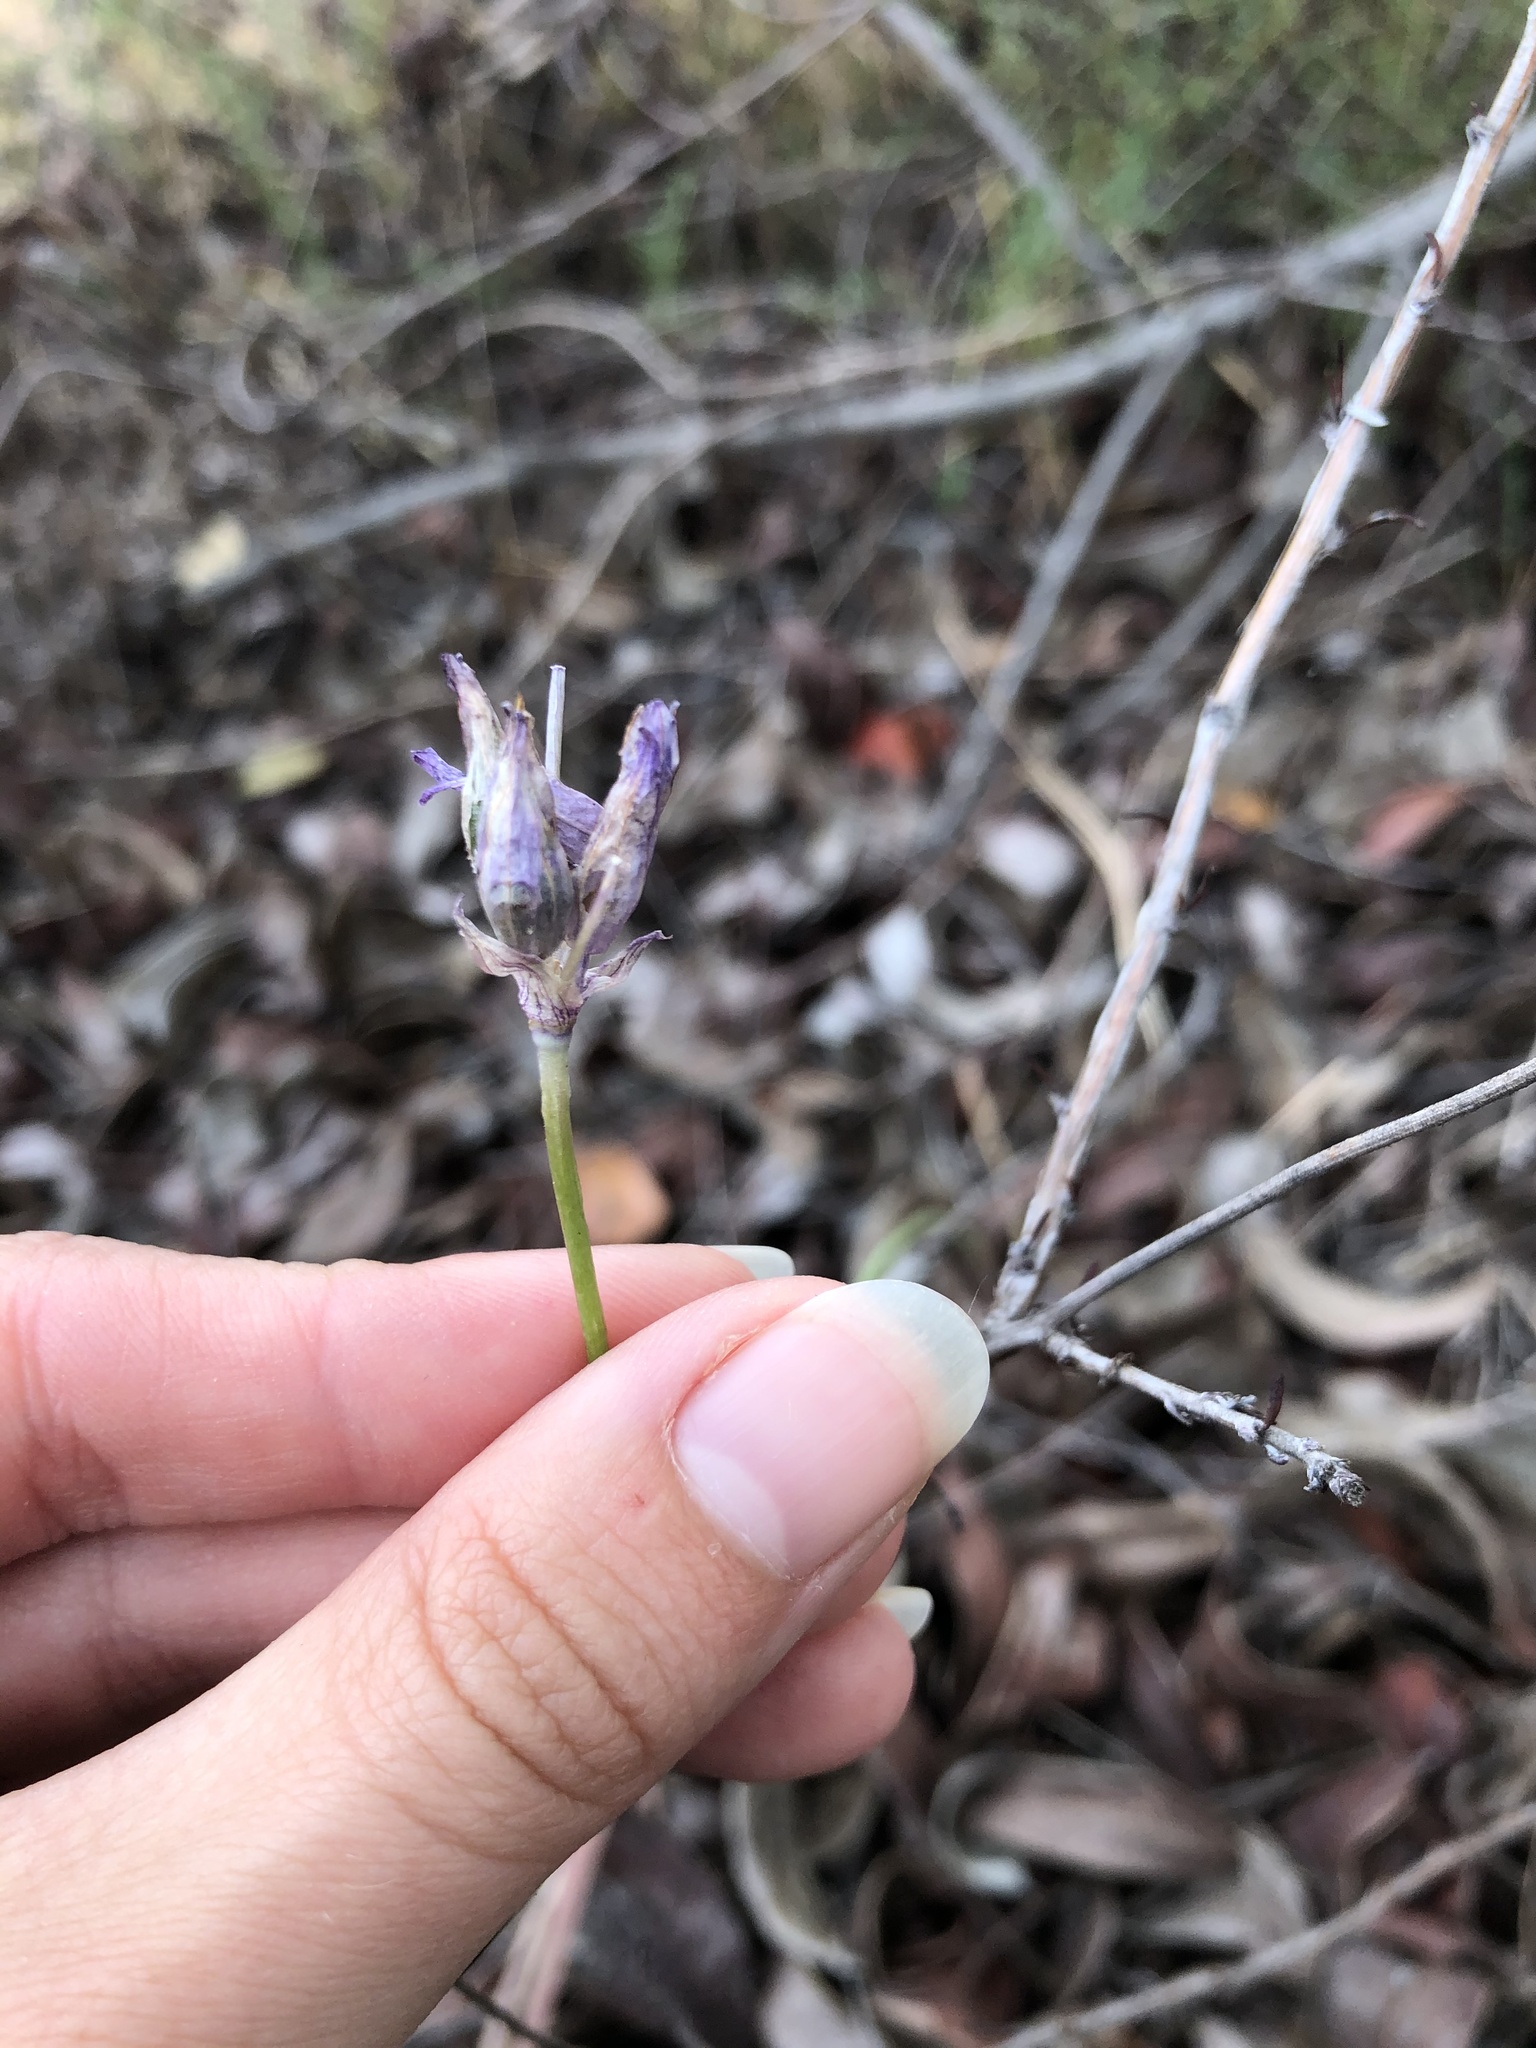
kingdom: Plantae
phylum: Tracheophyta
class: Liliopsida
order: Asparagales
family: Asparagaceae
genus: Dipterostemon
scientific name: Dipterostemon capitatus
